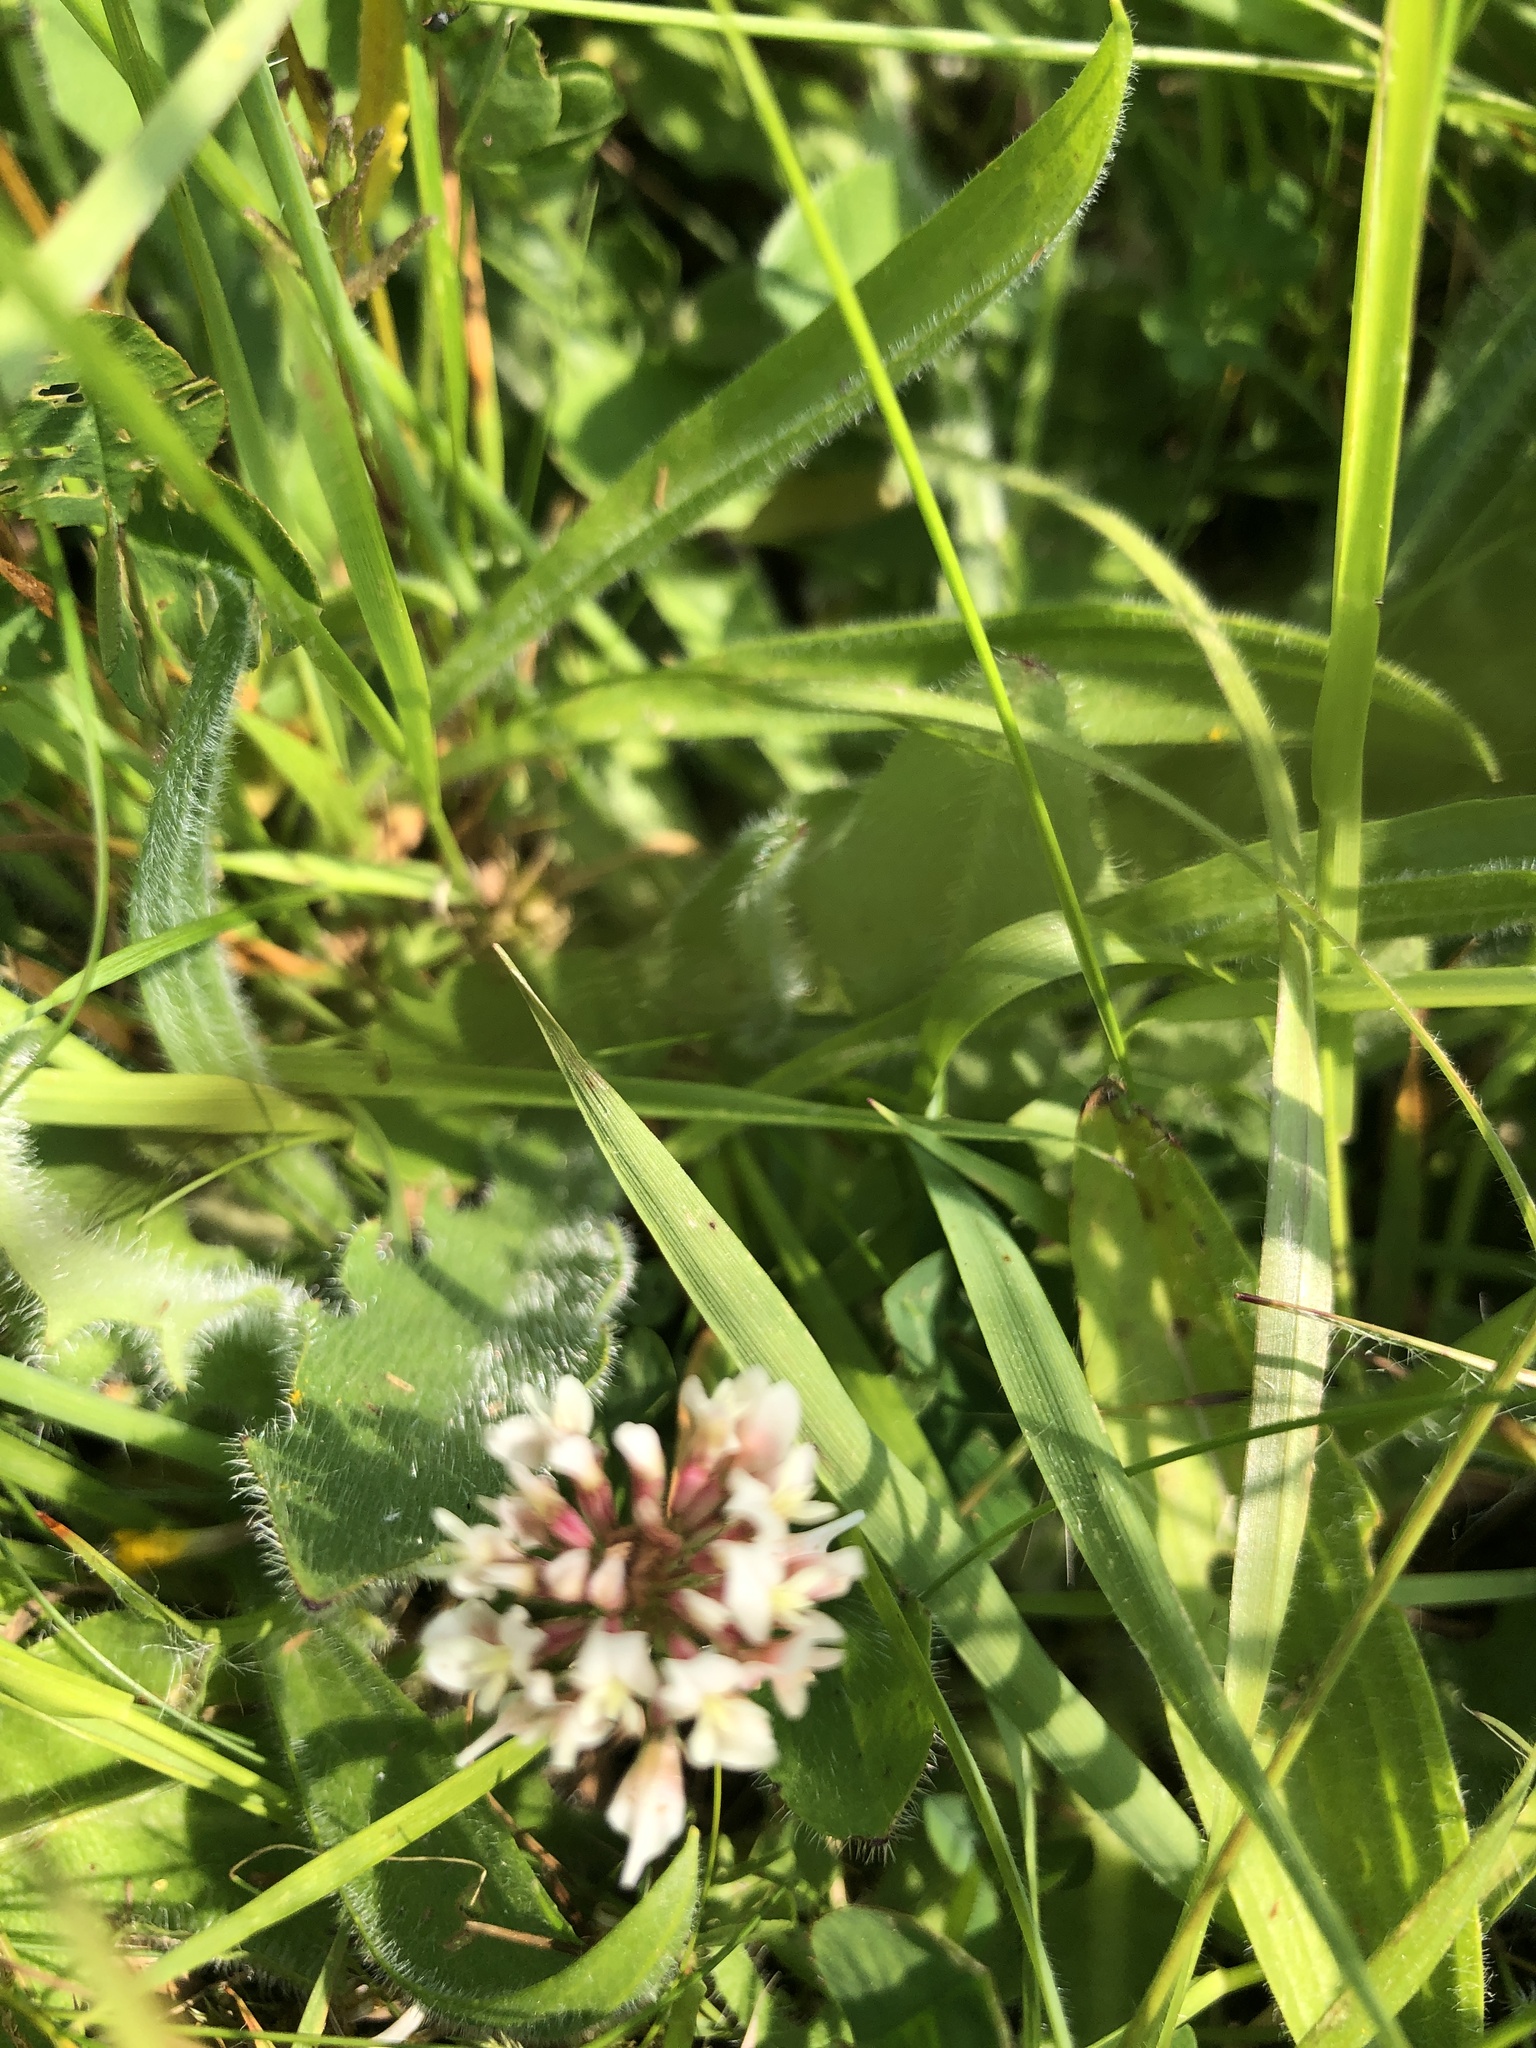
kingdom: Plantae
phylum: Tracheophyta
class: Magnoliopsida
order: Fabales
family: Fabaceae
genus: Trifolium
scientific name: Trifolium repens
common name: White clover
